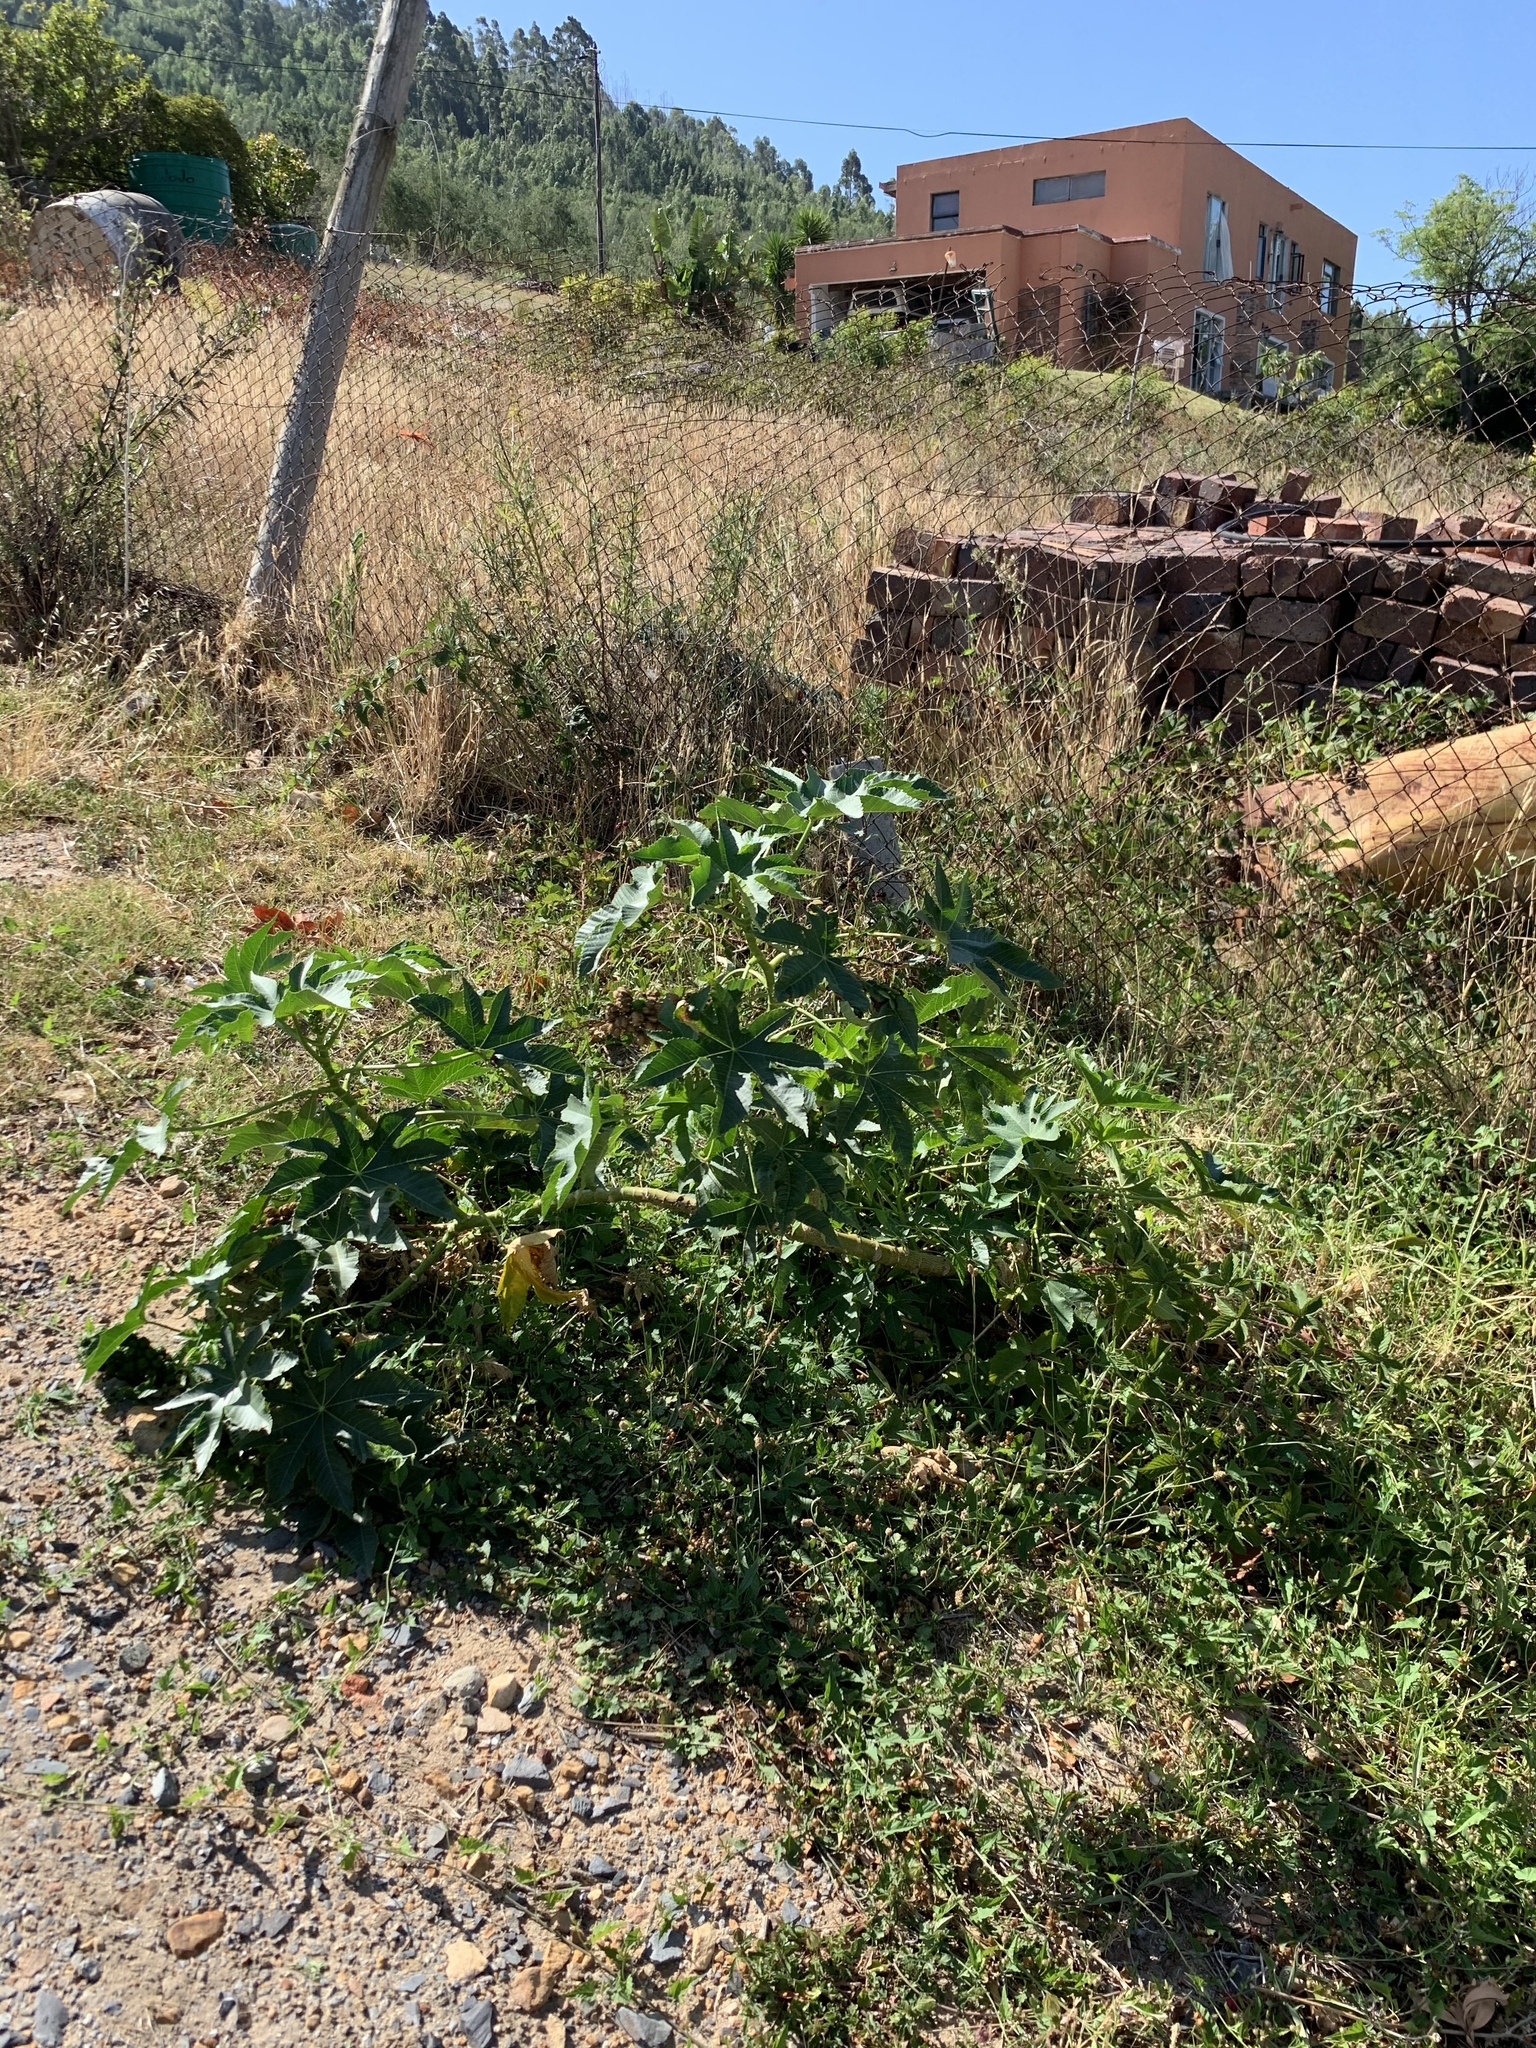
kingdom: Plantae
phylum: Tracheophyta
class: Magnoliopsida
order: Malpighiales
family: Euphorbiaceae
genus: Ricinus
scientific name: Ricinus communis
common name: Castor-oil-plant
